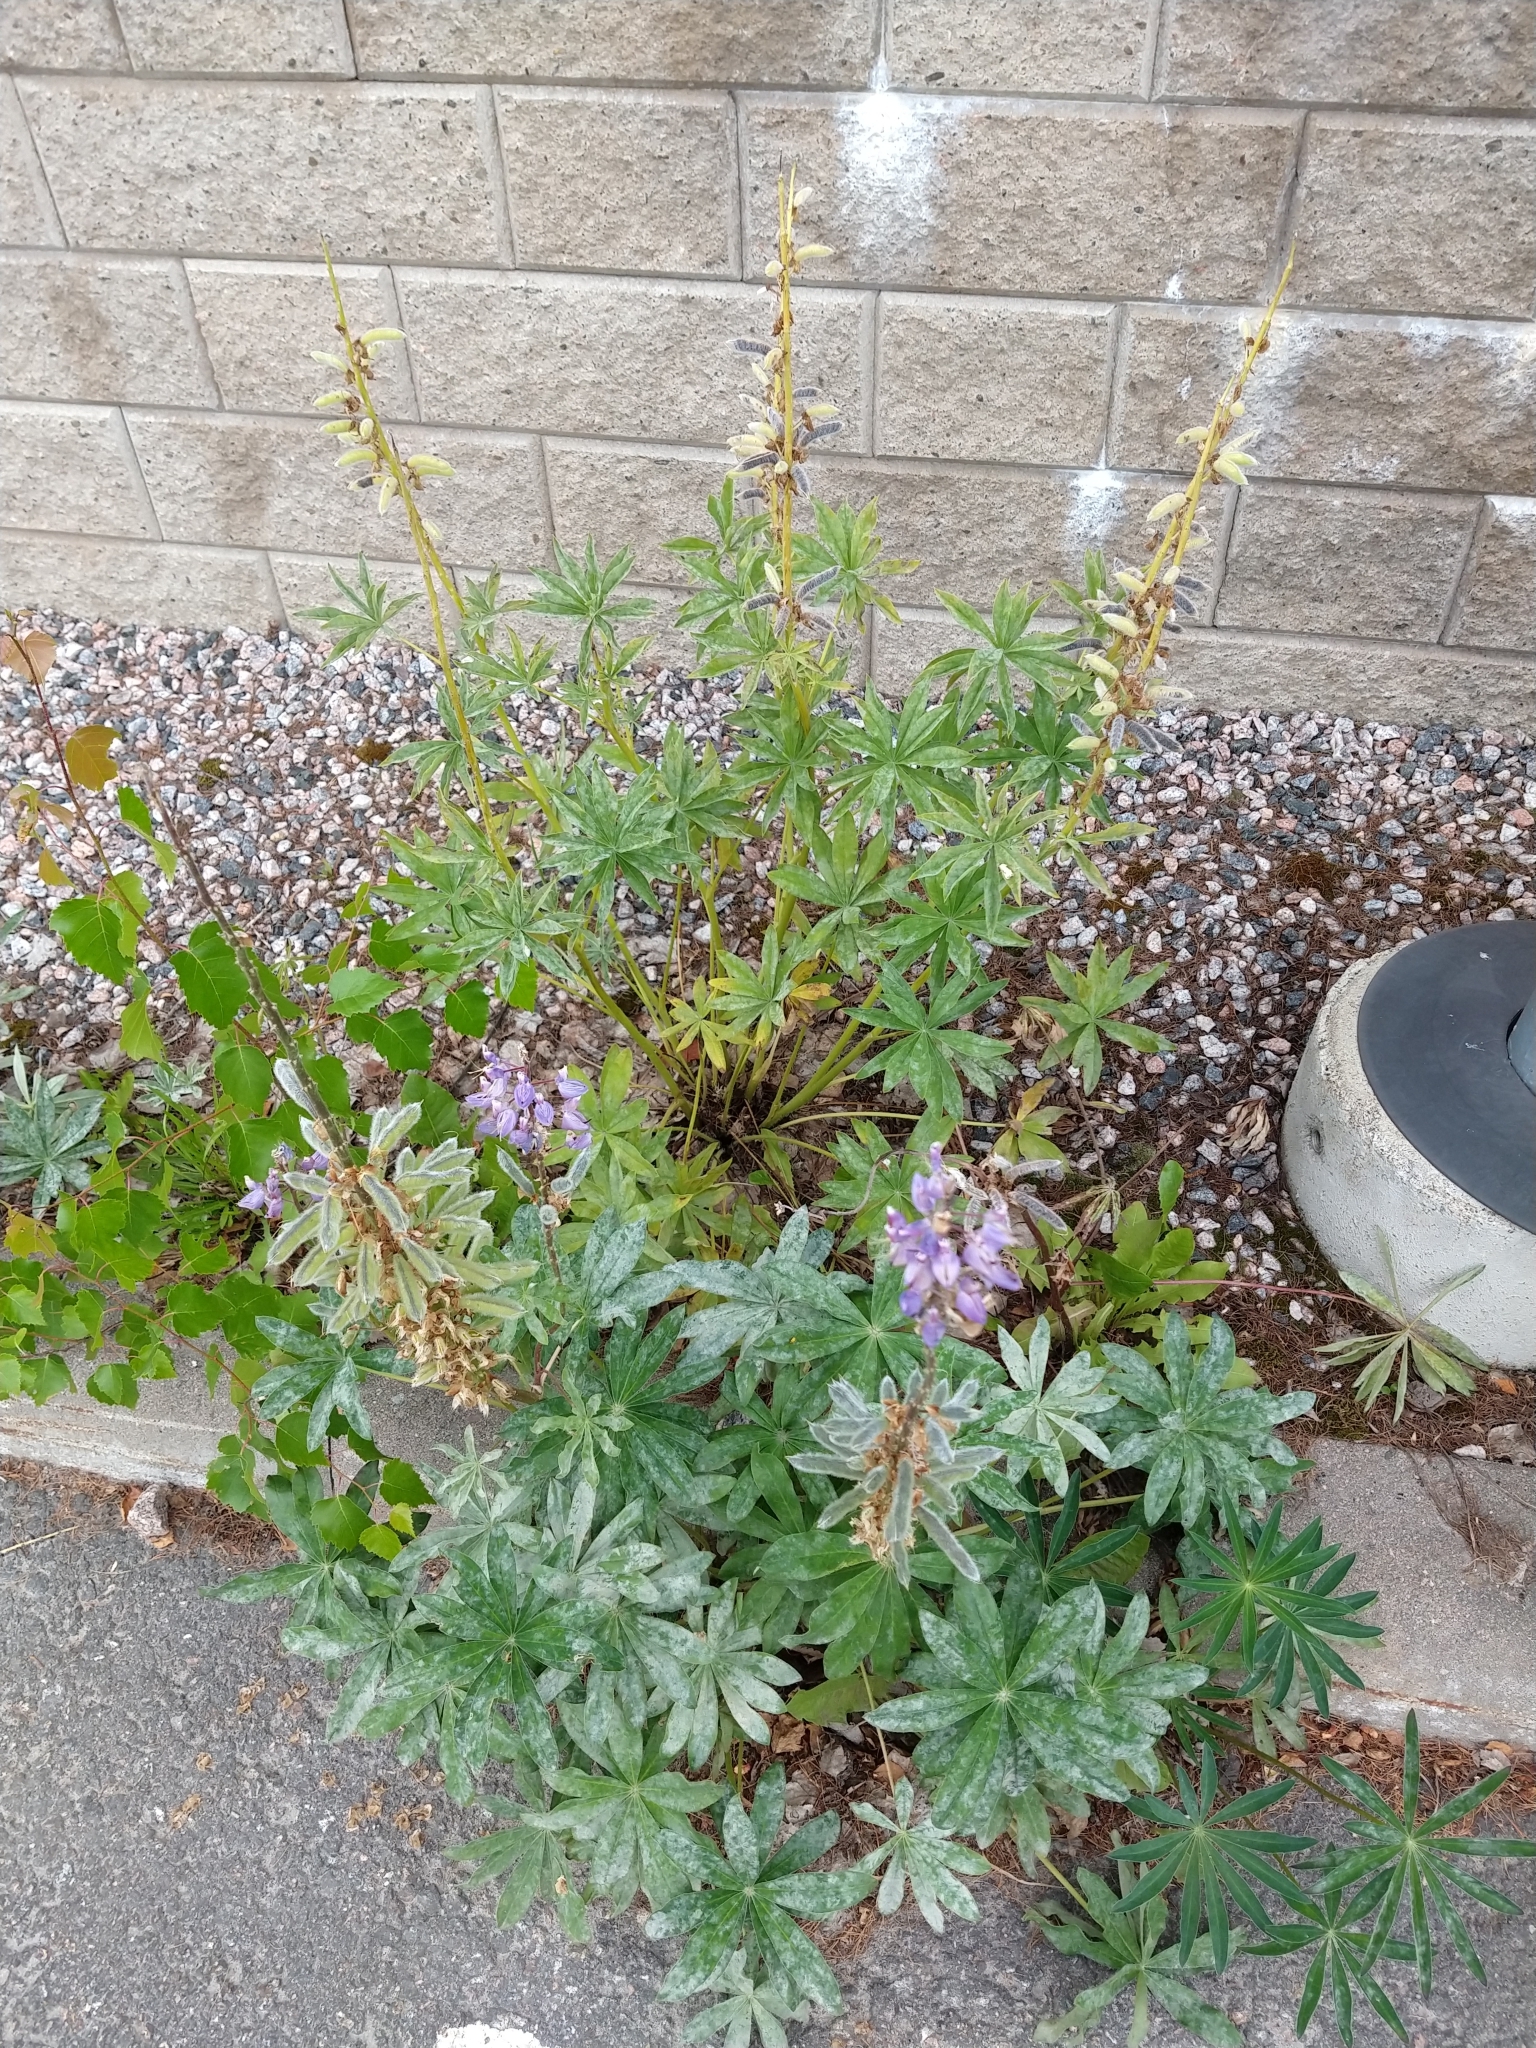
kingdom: Plantae
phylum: Tracheophyta
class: Magnoliopsida
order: Fabales
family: Fabaceae
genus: Lupinus
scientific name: Lupinus polyphyllus
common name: Garden lupin
